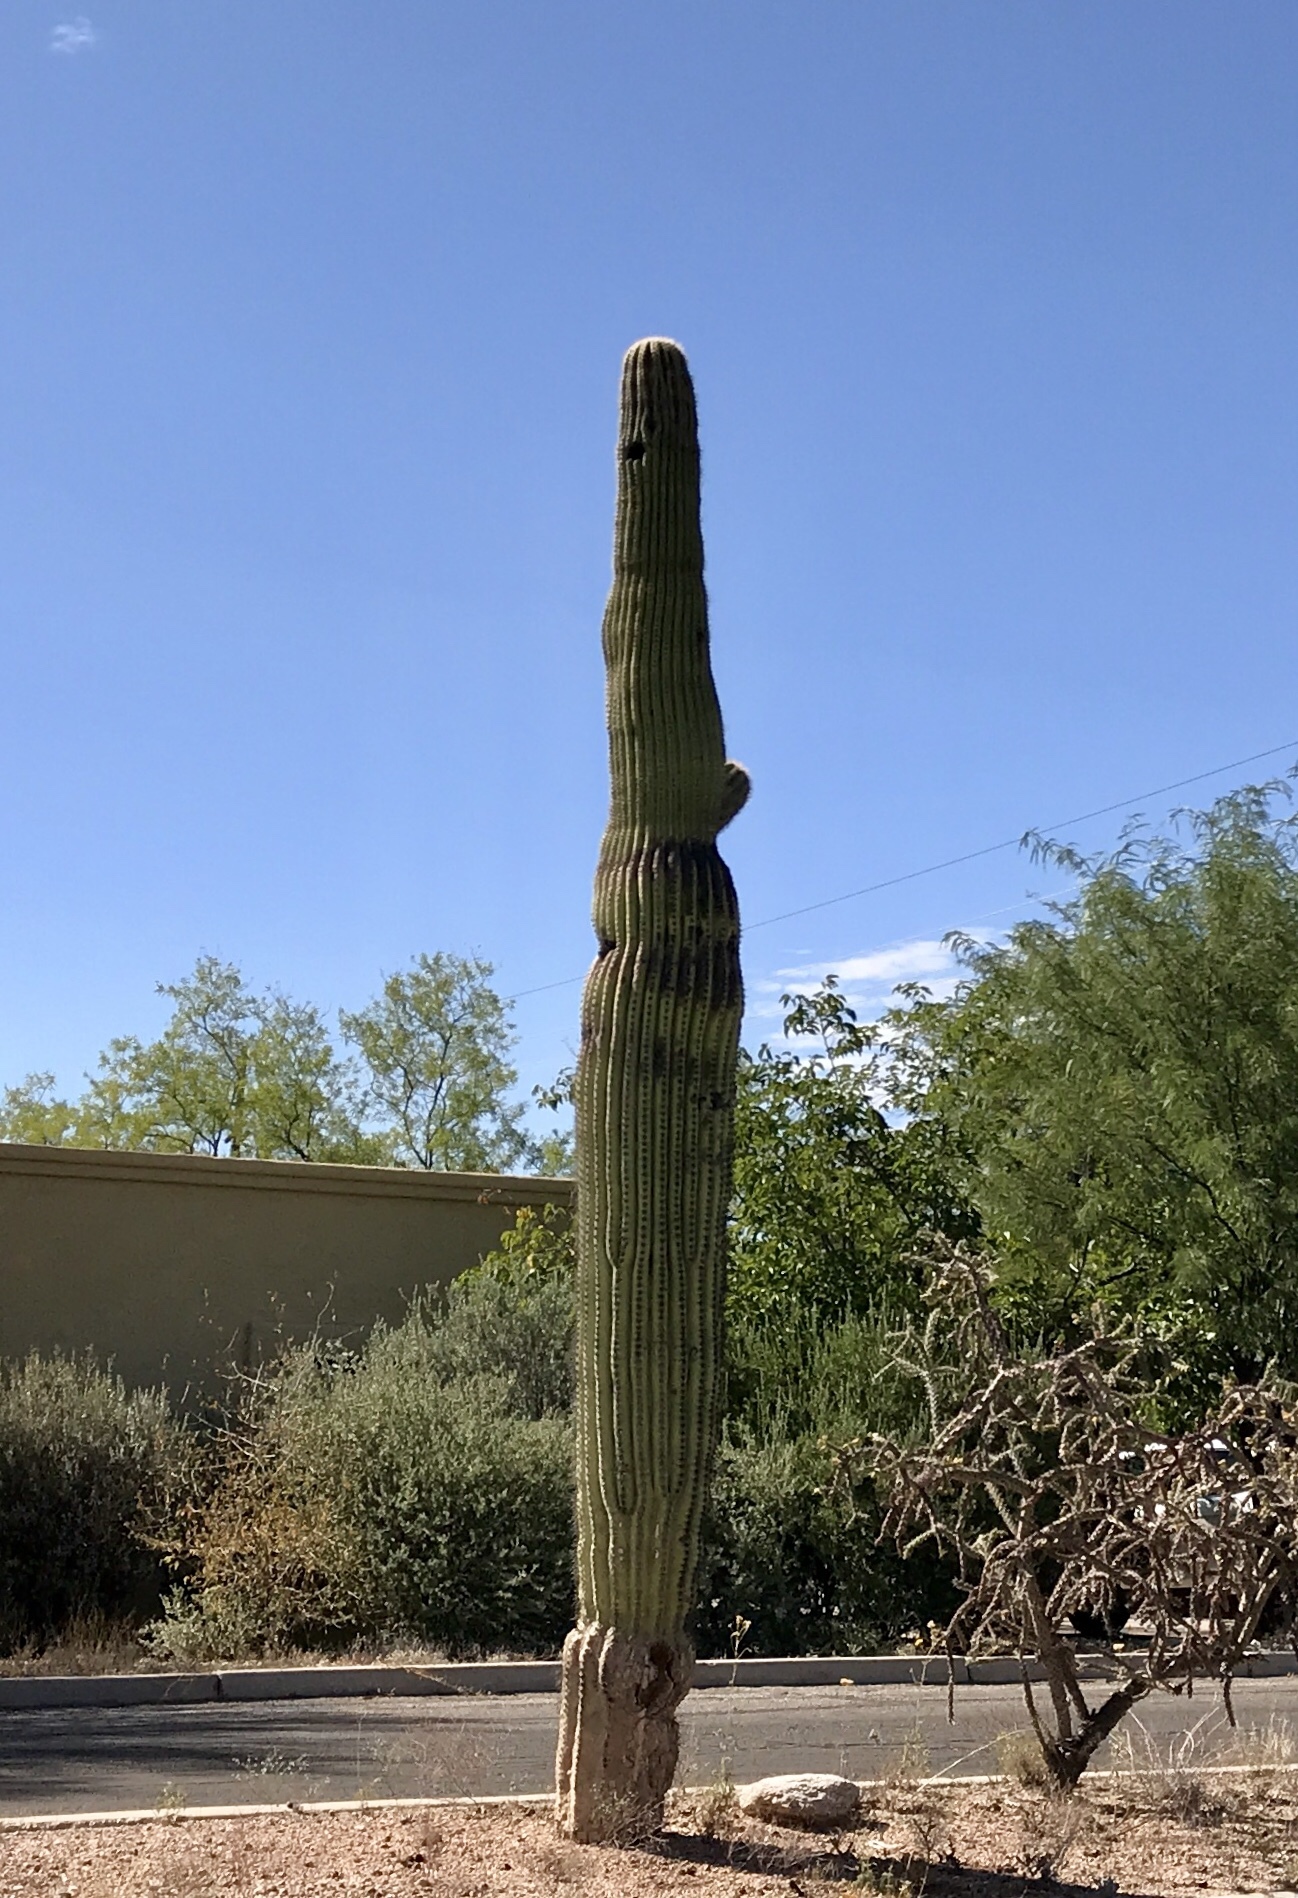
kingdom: Plantae
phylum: Tracheophyta
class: Magnoliopsida
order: Caryophyllales
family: Cactaceae
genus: Carnegiea
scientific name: Carnegiea gigantea
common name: Saguaro
